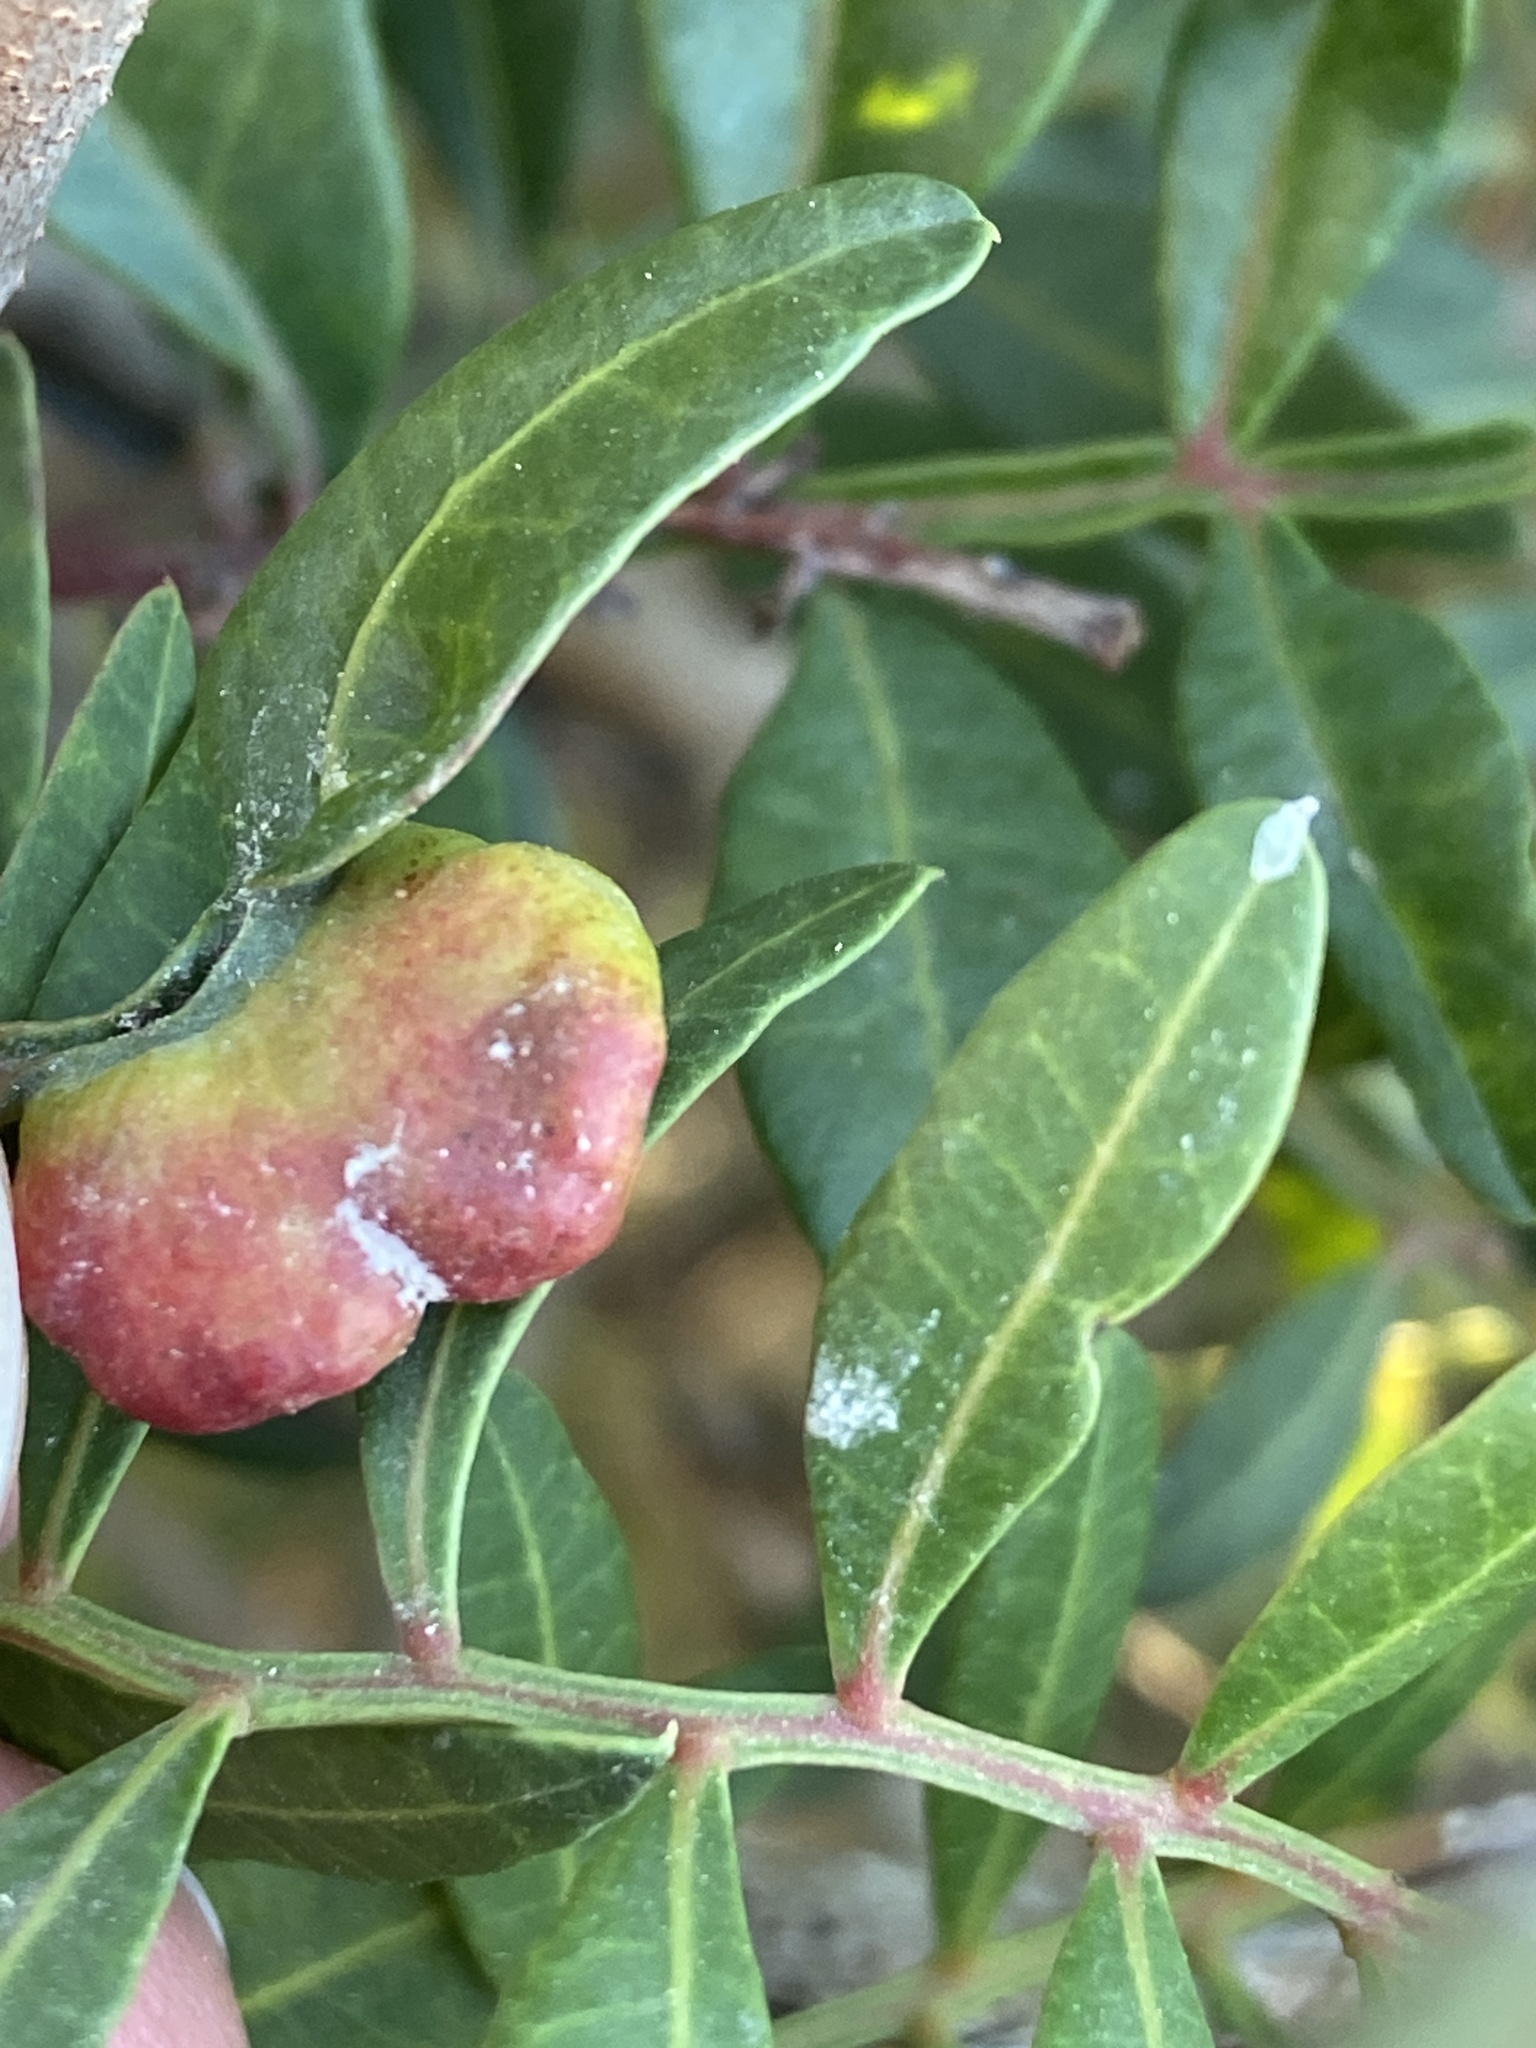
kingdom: Animalia
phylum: Arthropoda
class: Insecta
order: Hemiptera
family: Aphididae
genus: Aploneura
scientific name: Aploneura lentisci
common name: Mealy grass root aphid
